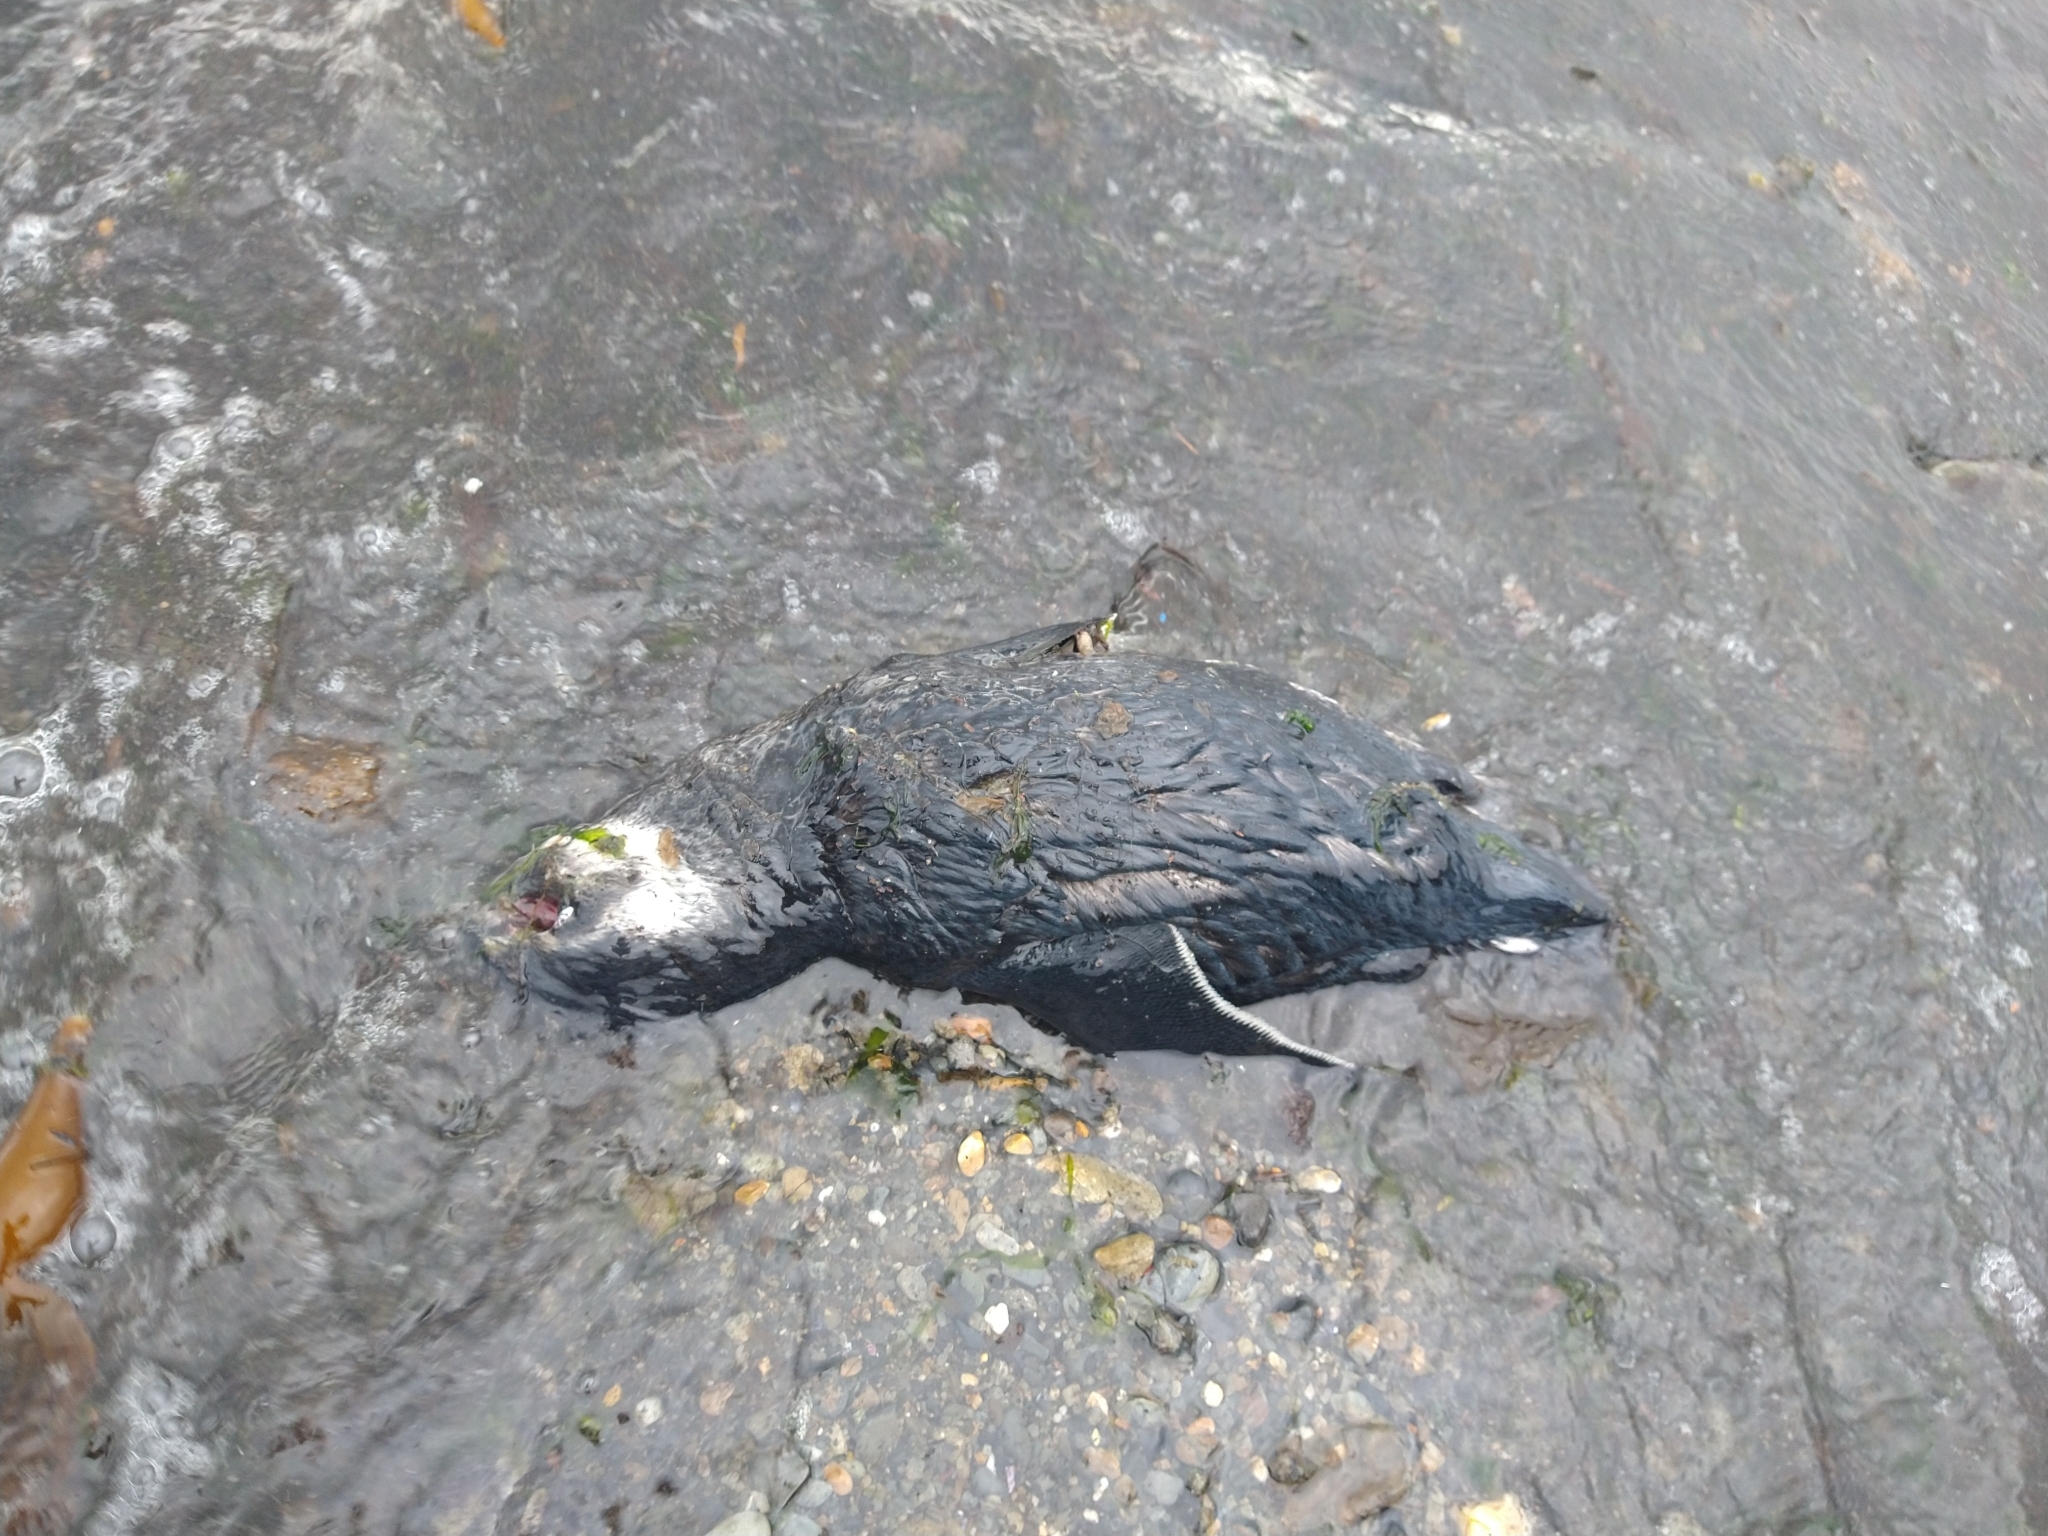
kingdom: Animalia
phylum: Chordata
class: Aves
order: Sphenisciformes
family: Spheniscidae
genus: Spheniscus
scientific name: Spheniscus magellanicus
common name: Magellanic penguin
